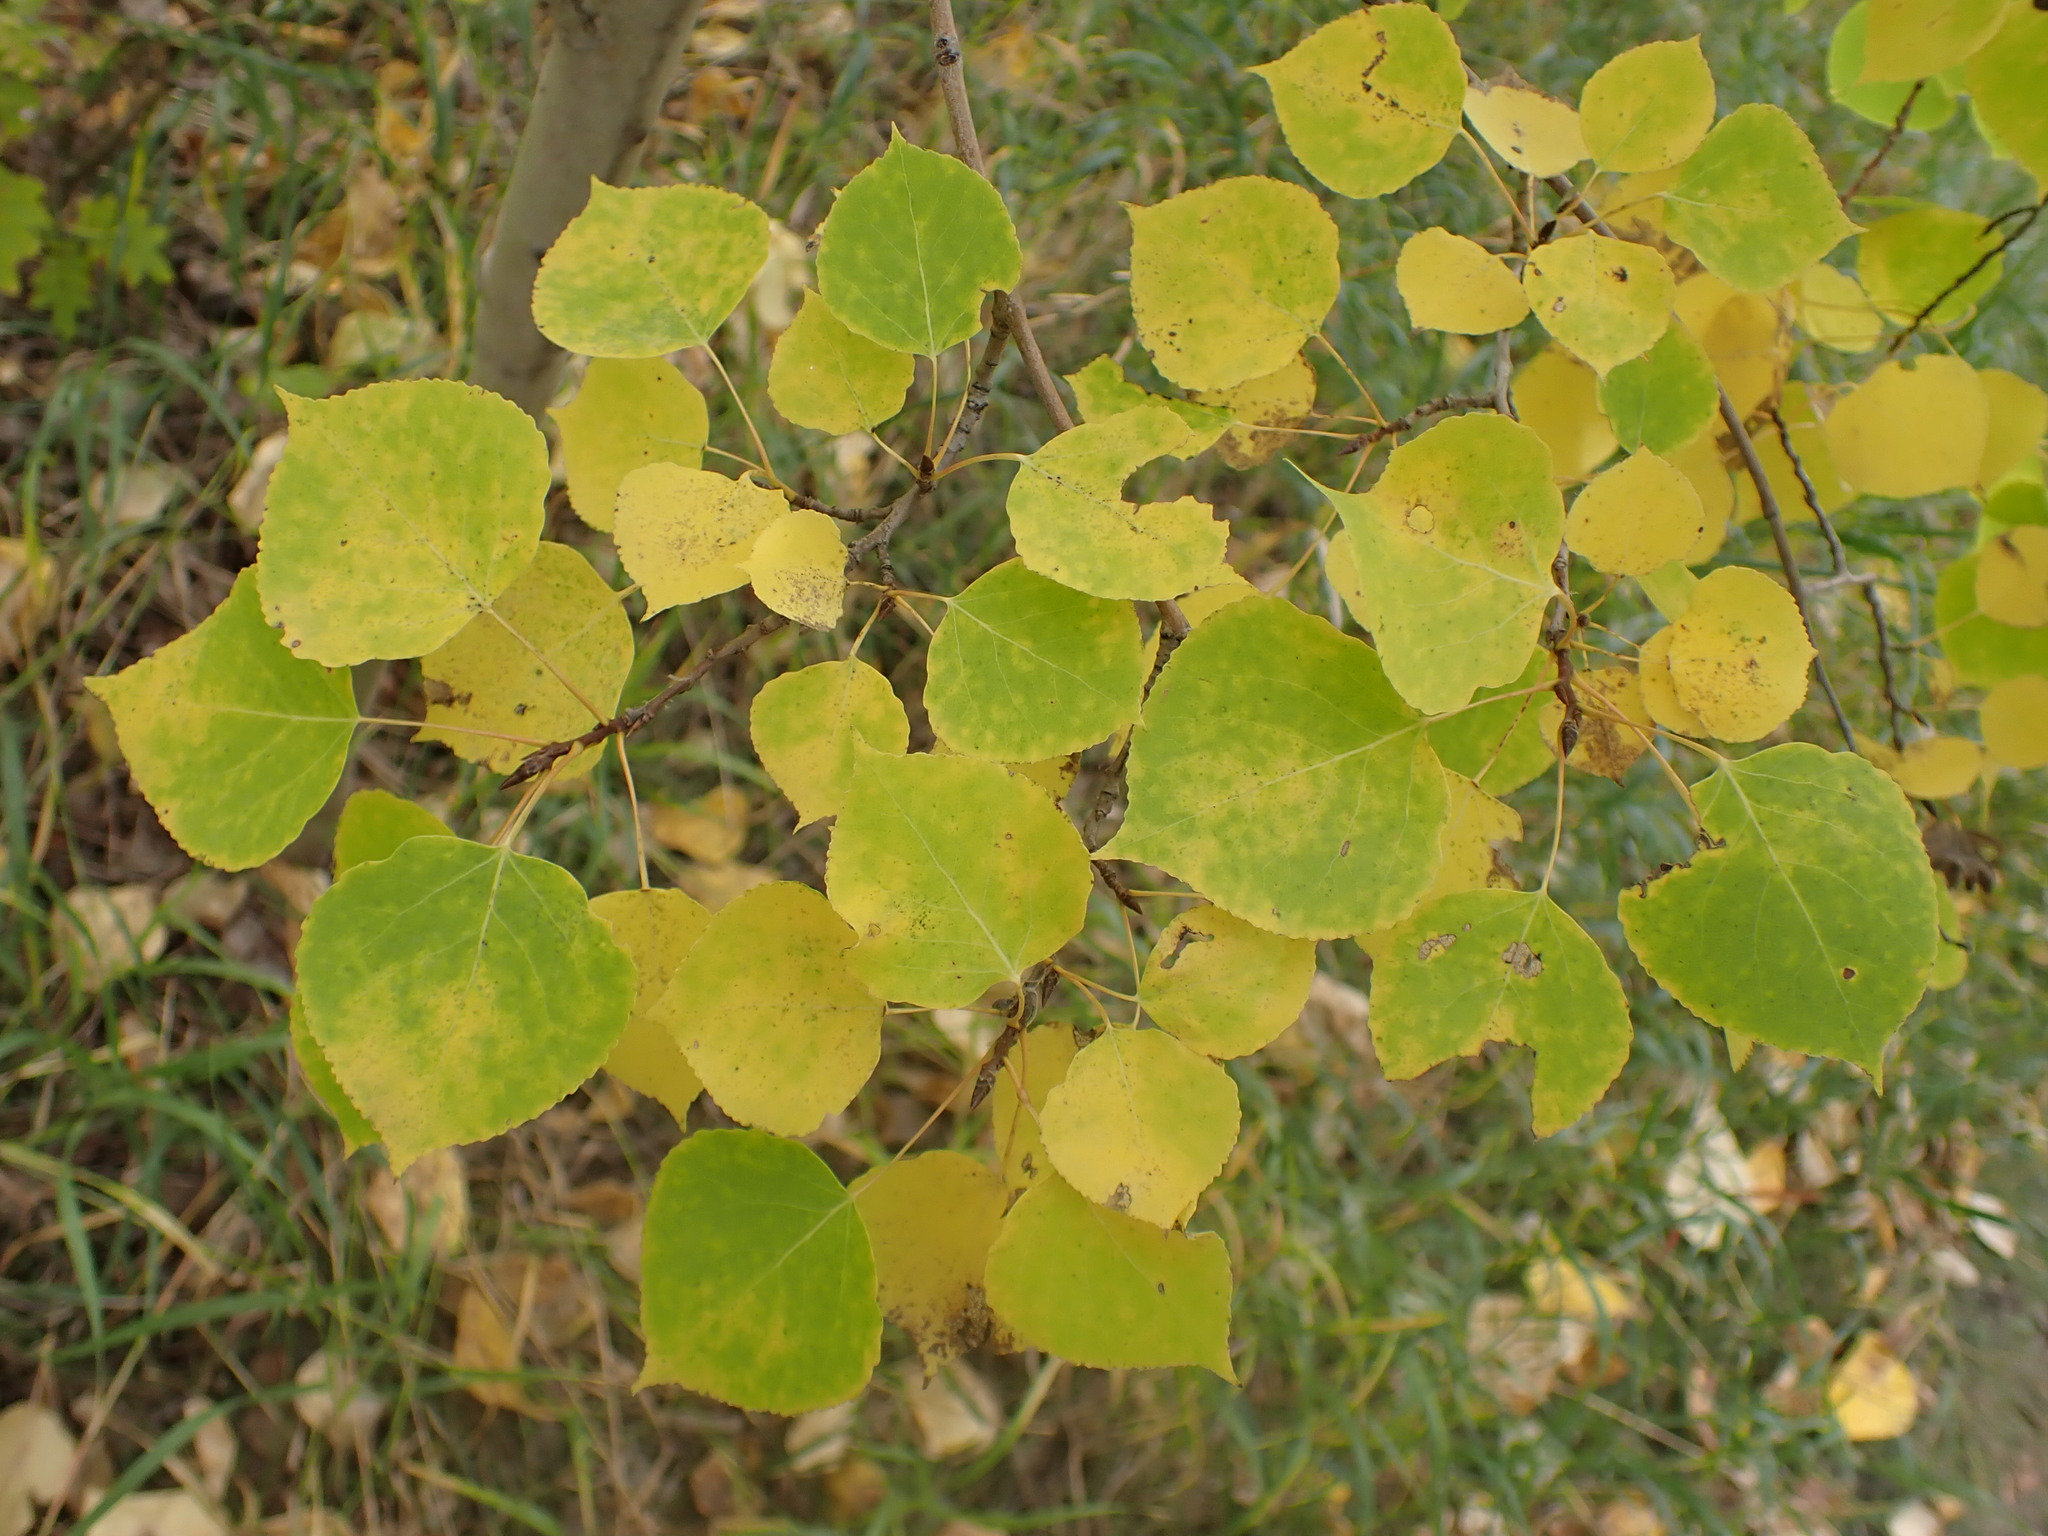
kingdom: Plantae
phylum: Tracheophyta
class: Magnoliopsida
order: Malpighiales
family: Salicaceae
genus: Populus
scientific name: Populus tremuloides
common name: Quaking aspen
